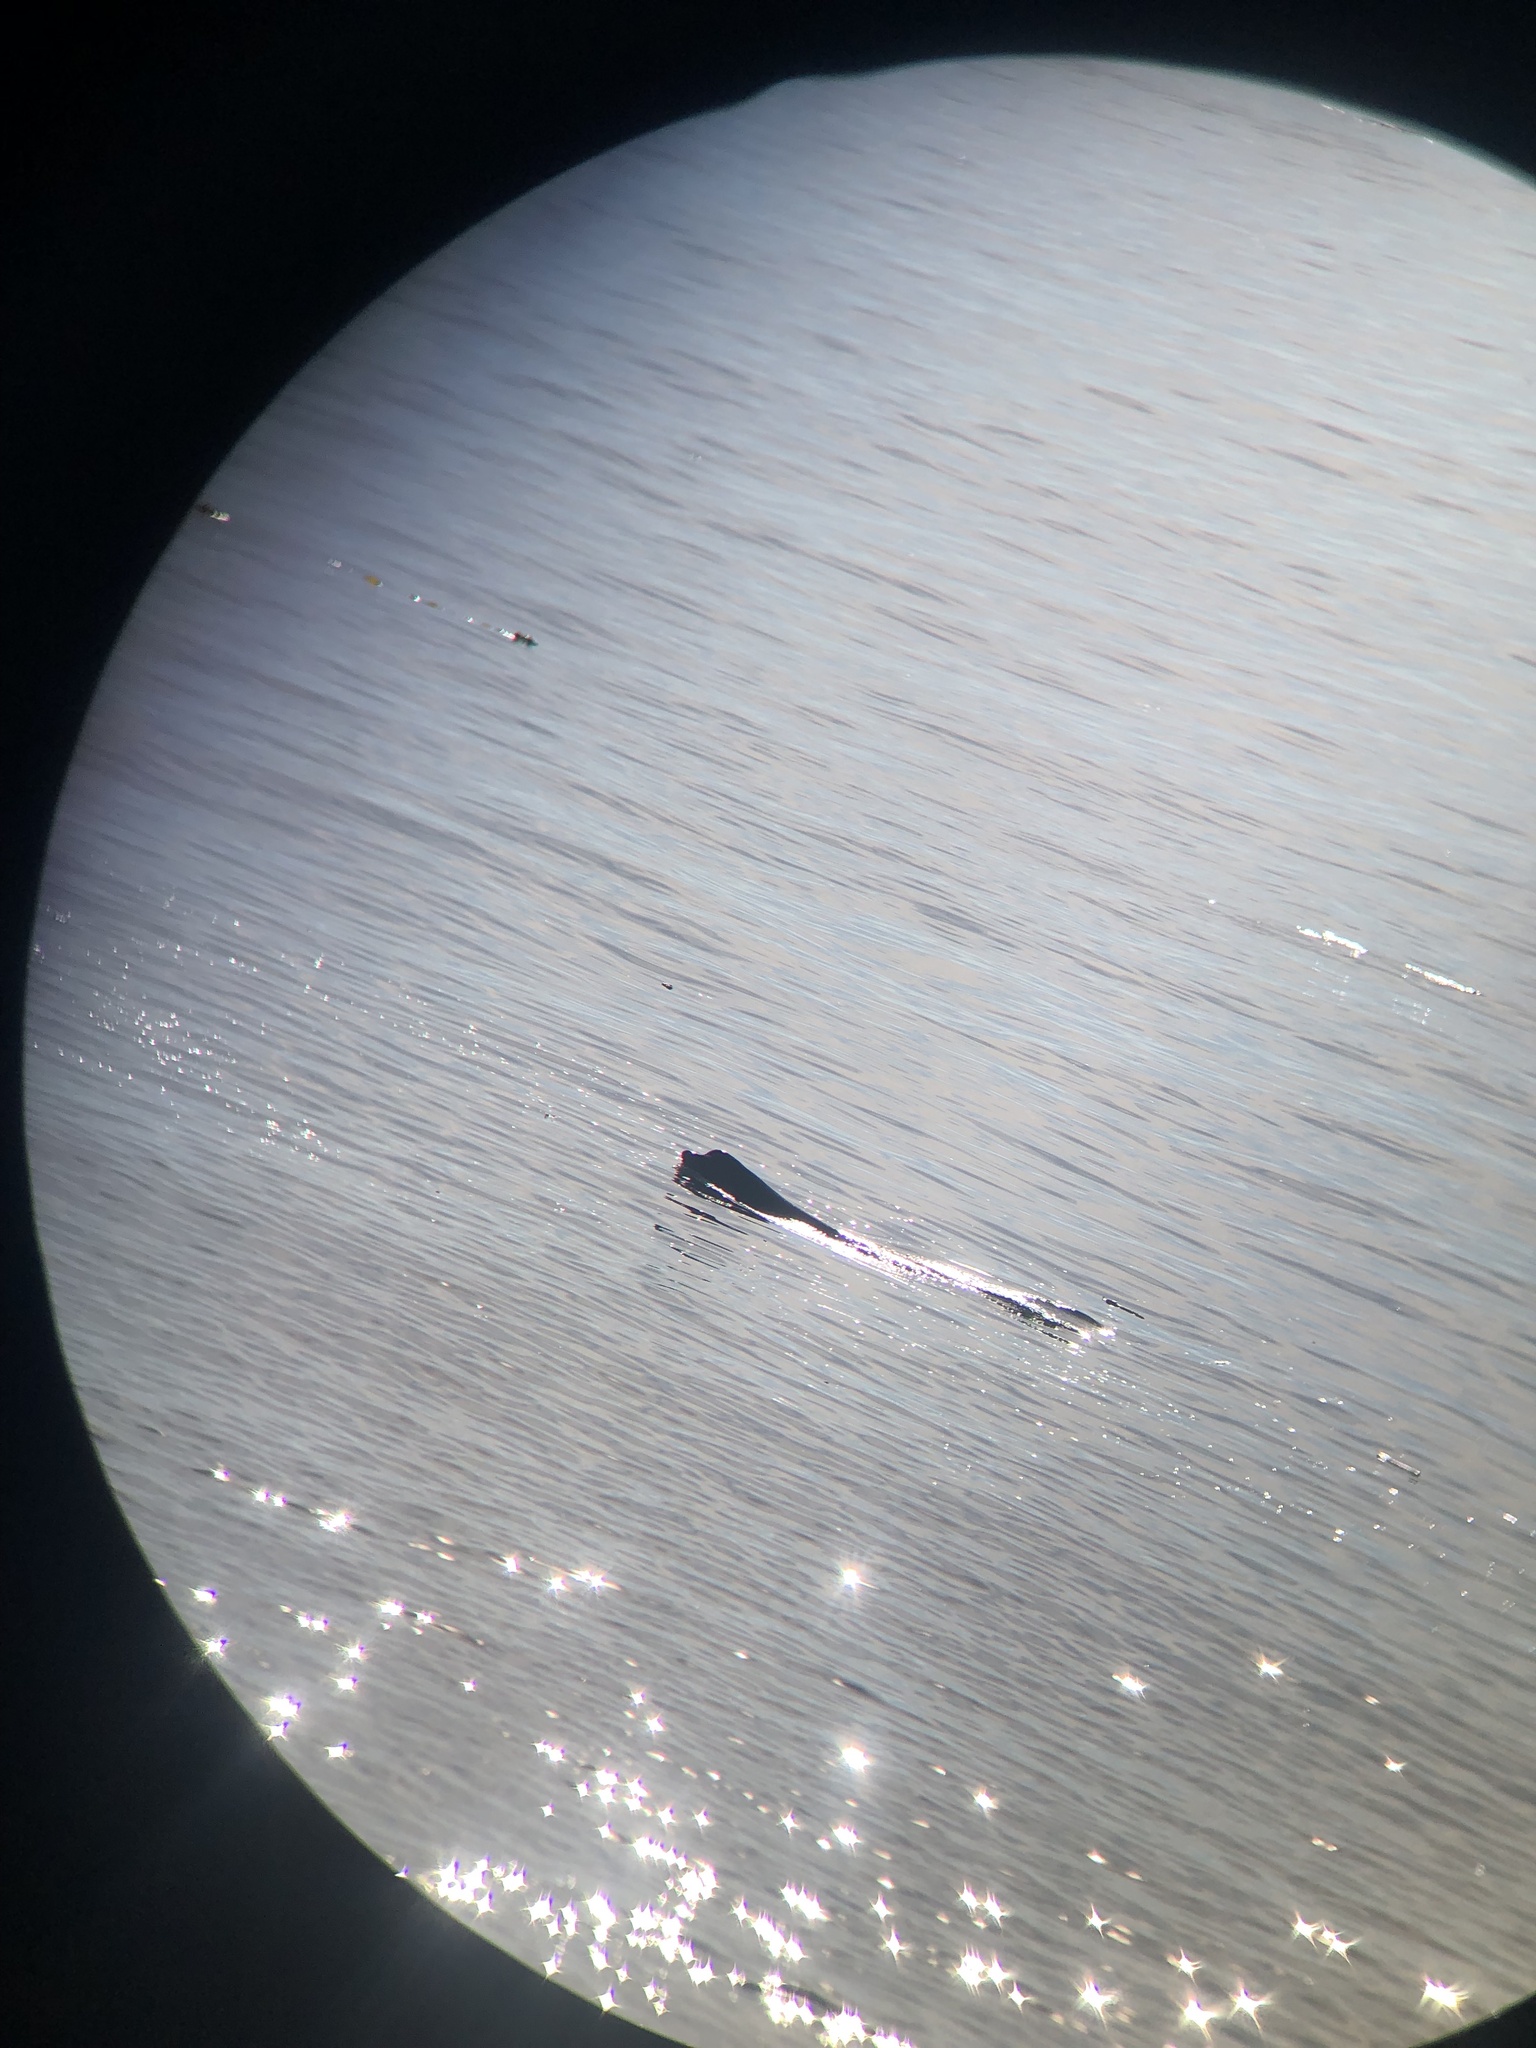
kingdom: Animalia
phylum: Chordata
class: Mammalia
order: Carnivora
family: Otariidae
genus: Zalophus
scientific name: Zalophus californianus
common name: California sea lion
